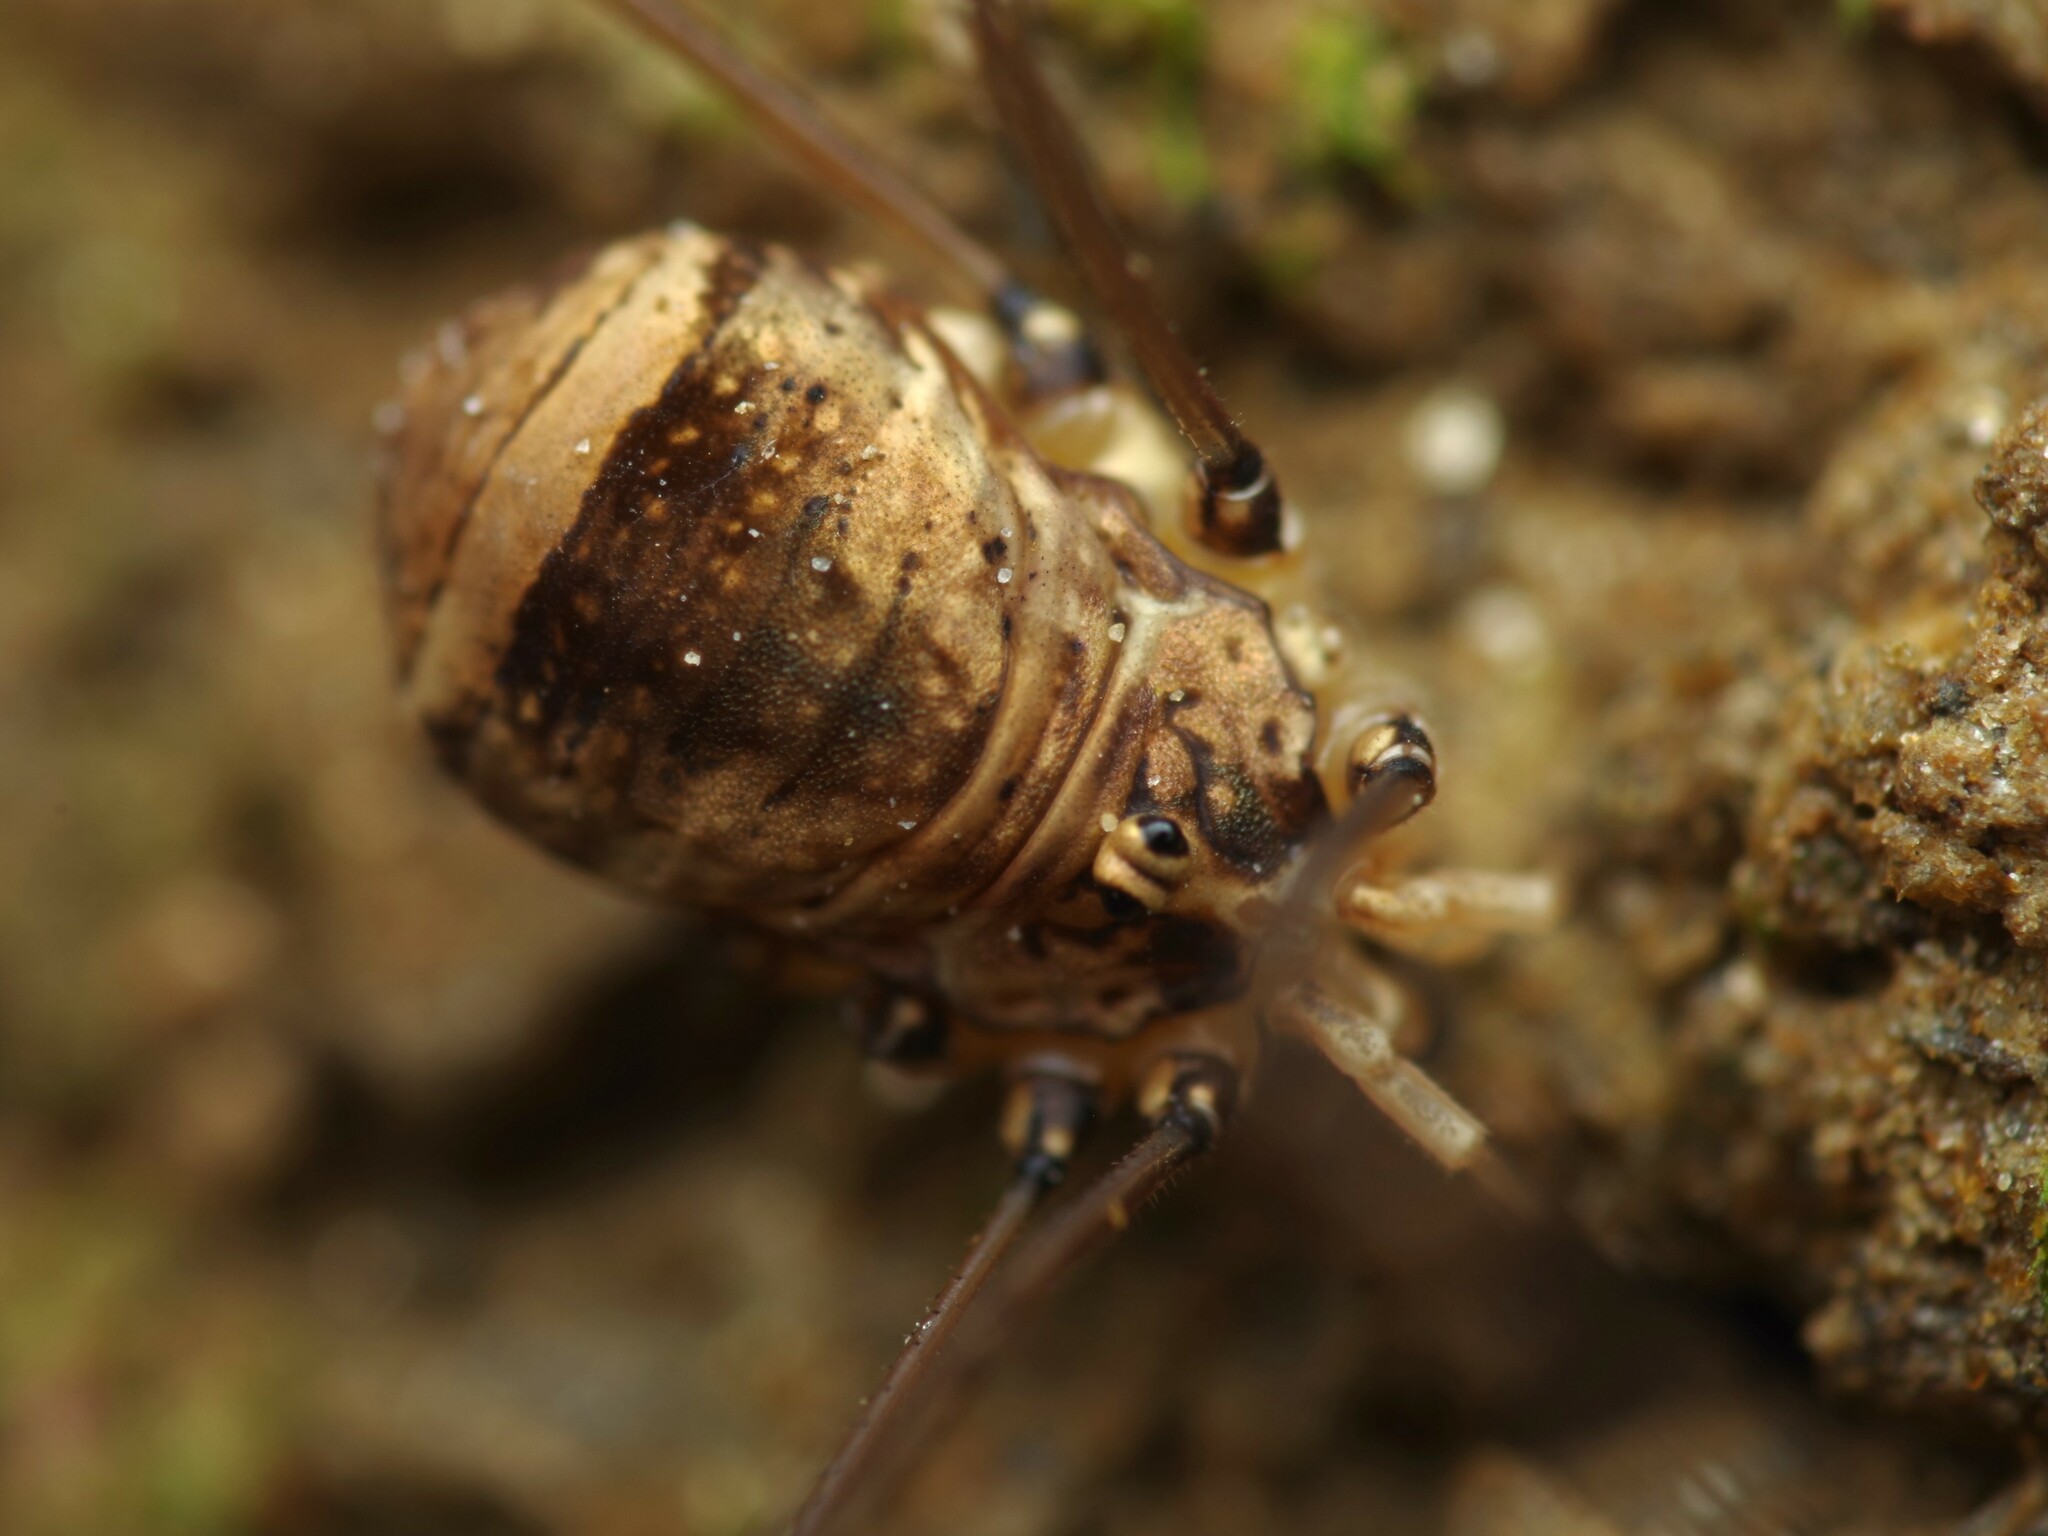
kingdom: Animalia
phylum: Arthropoda
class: Arachnida
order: Opiliones
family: Sclerosomatidae
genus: Leiobunum
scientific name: Leiobunum blackwalli
